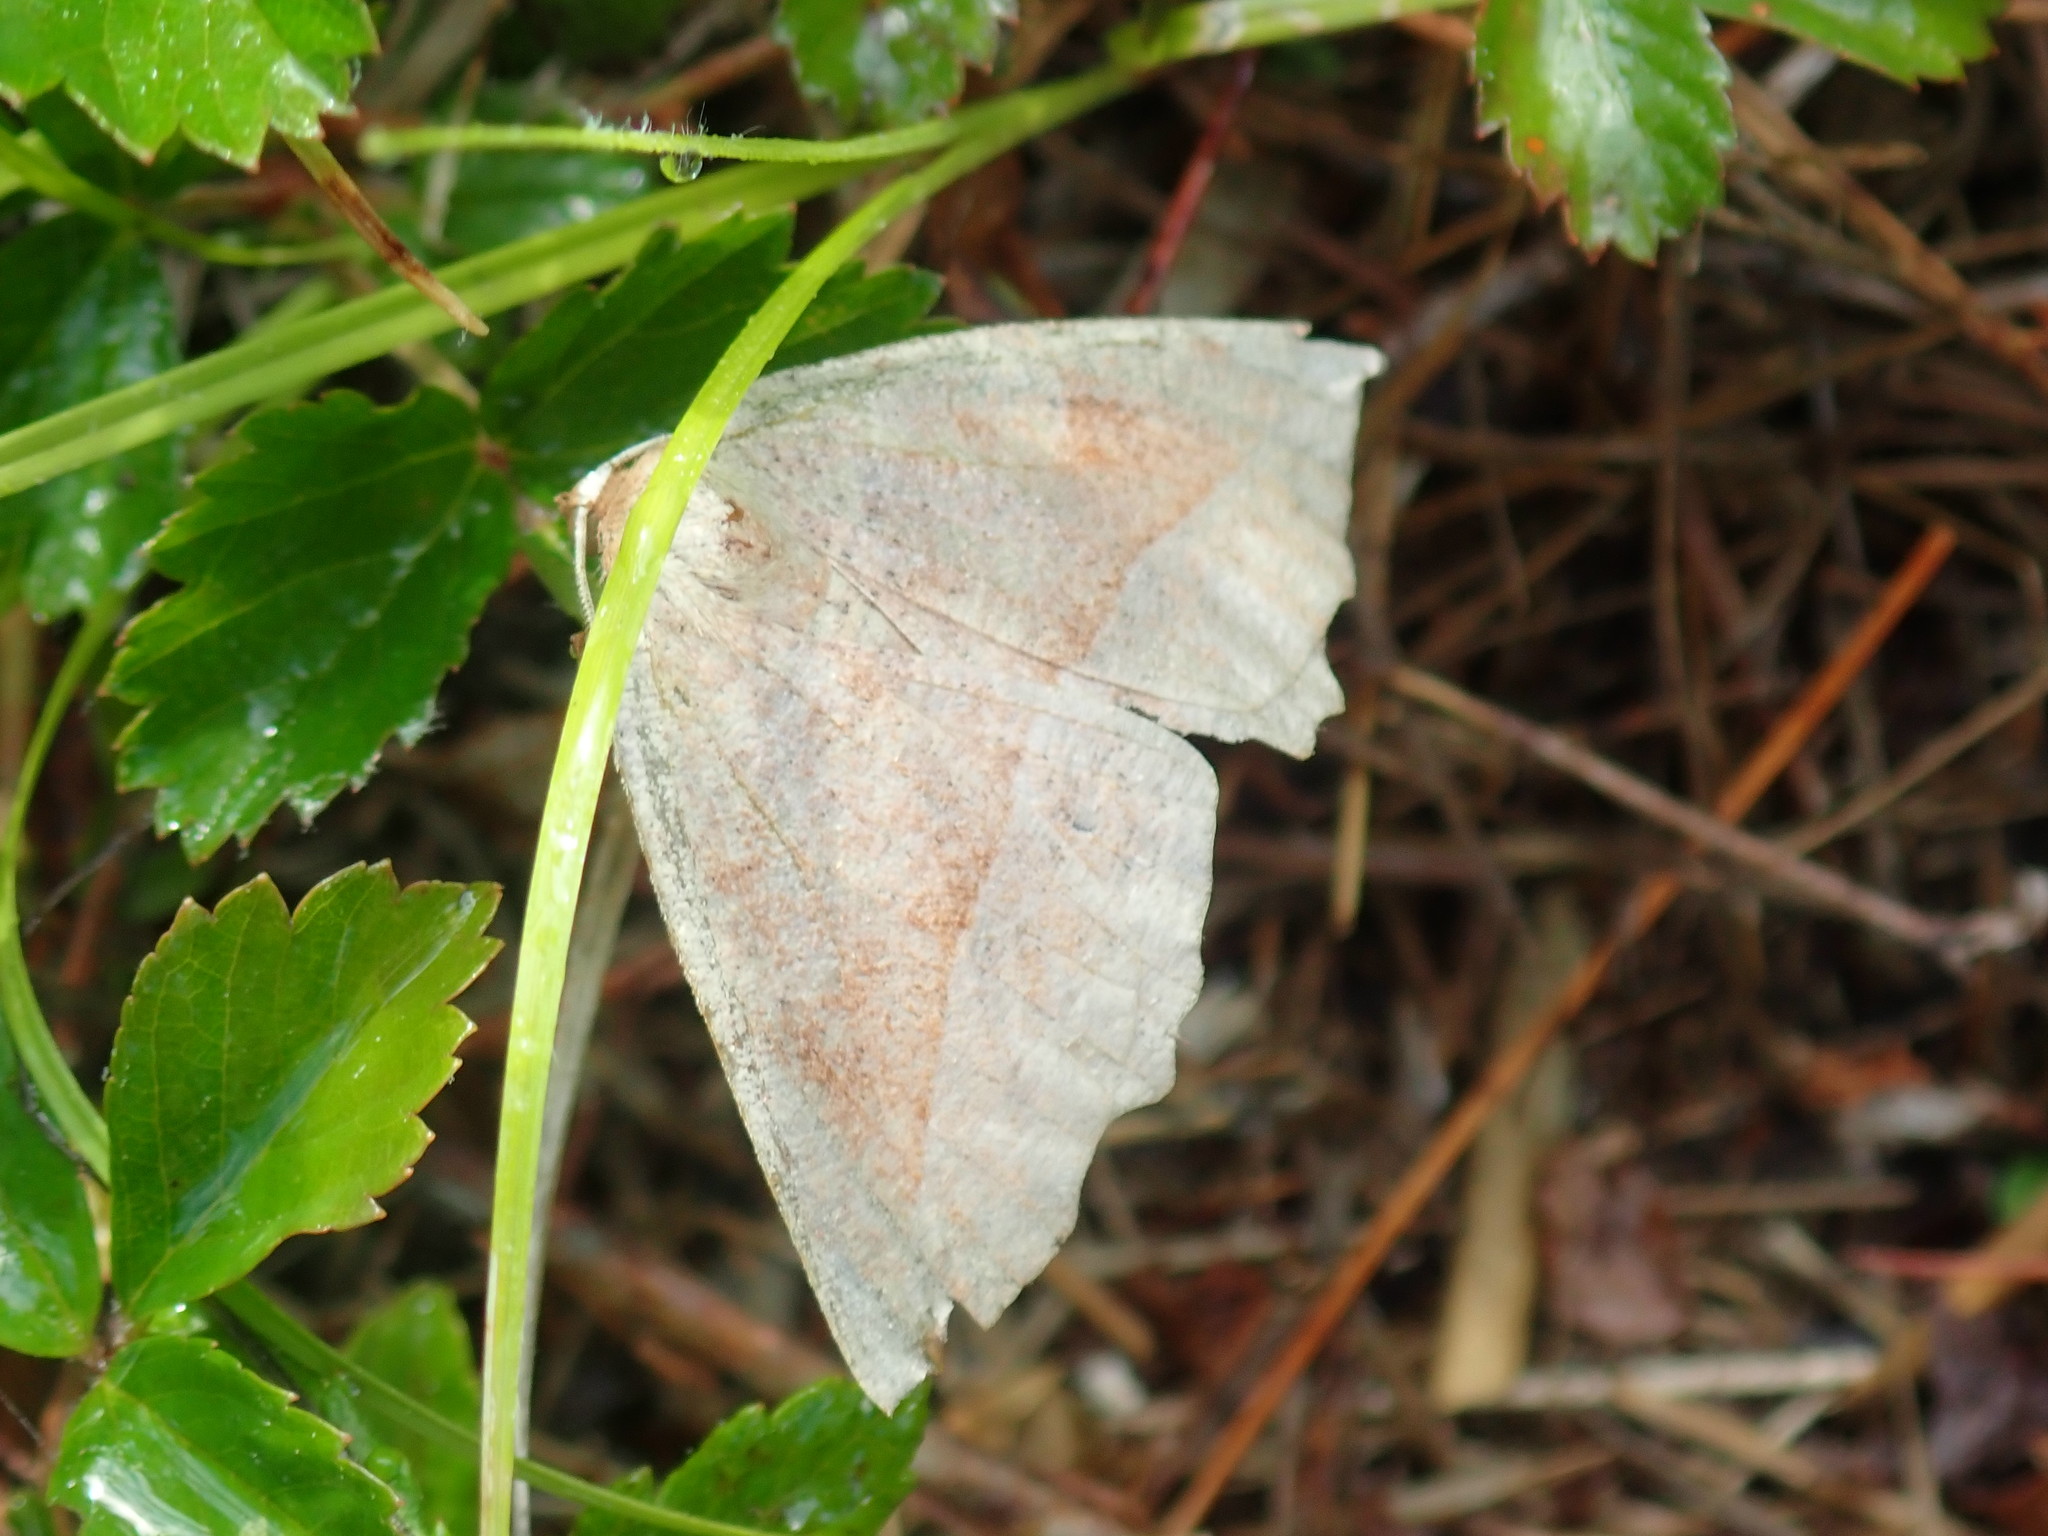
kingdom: Animalia
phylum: Arthropoda
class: Insecta
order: Lepidoptera
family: Geometridae
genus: Eutrapela
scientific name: Eutrapela clemataria
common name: Curved-toothed geometer
